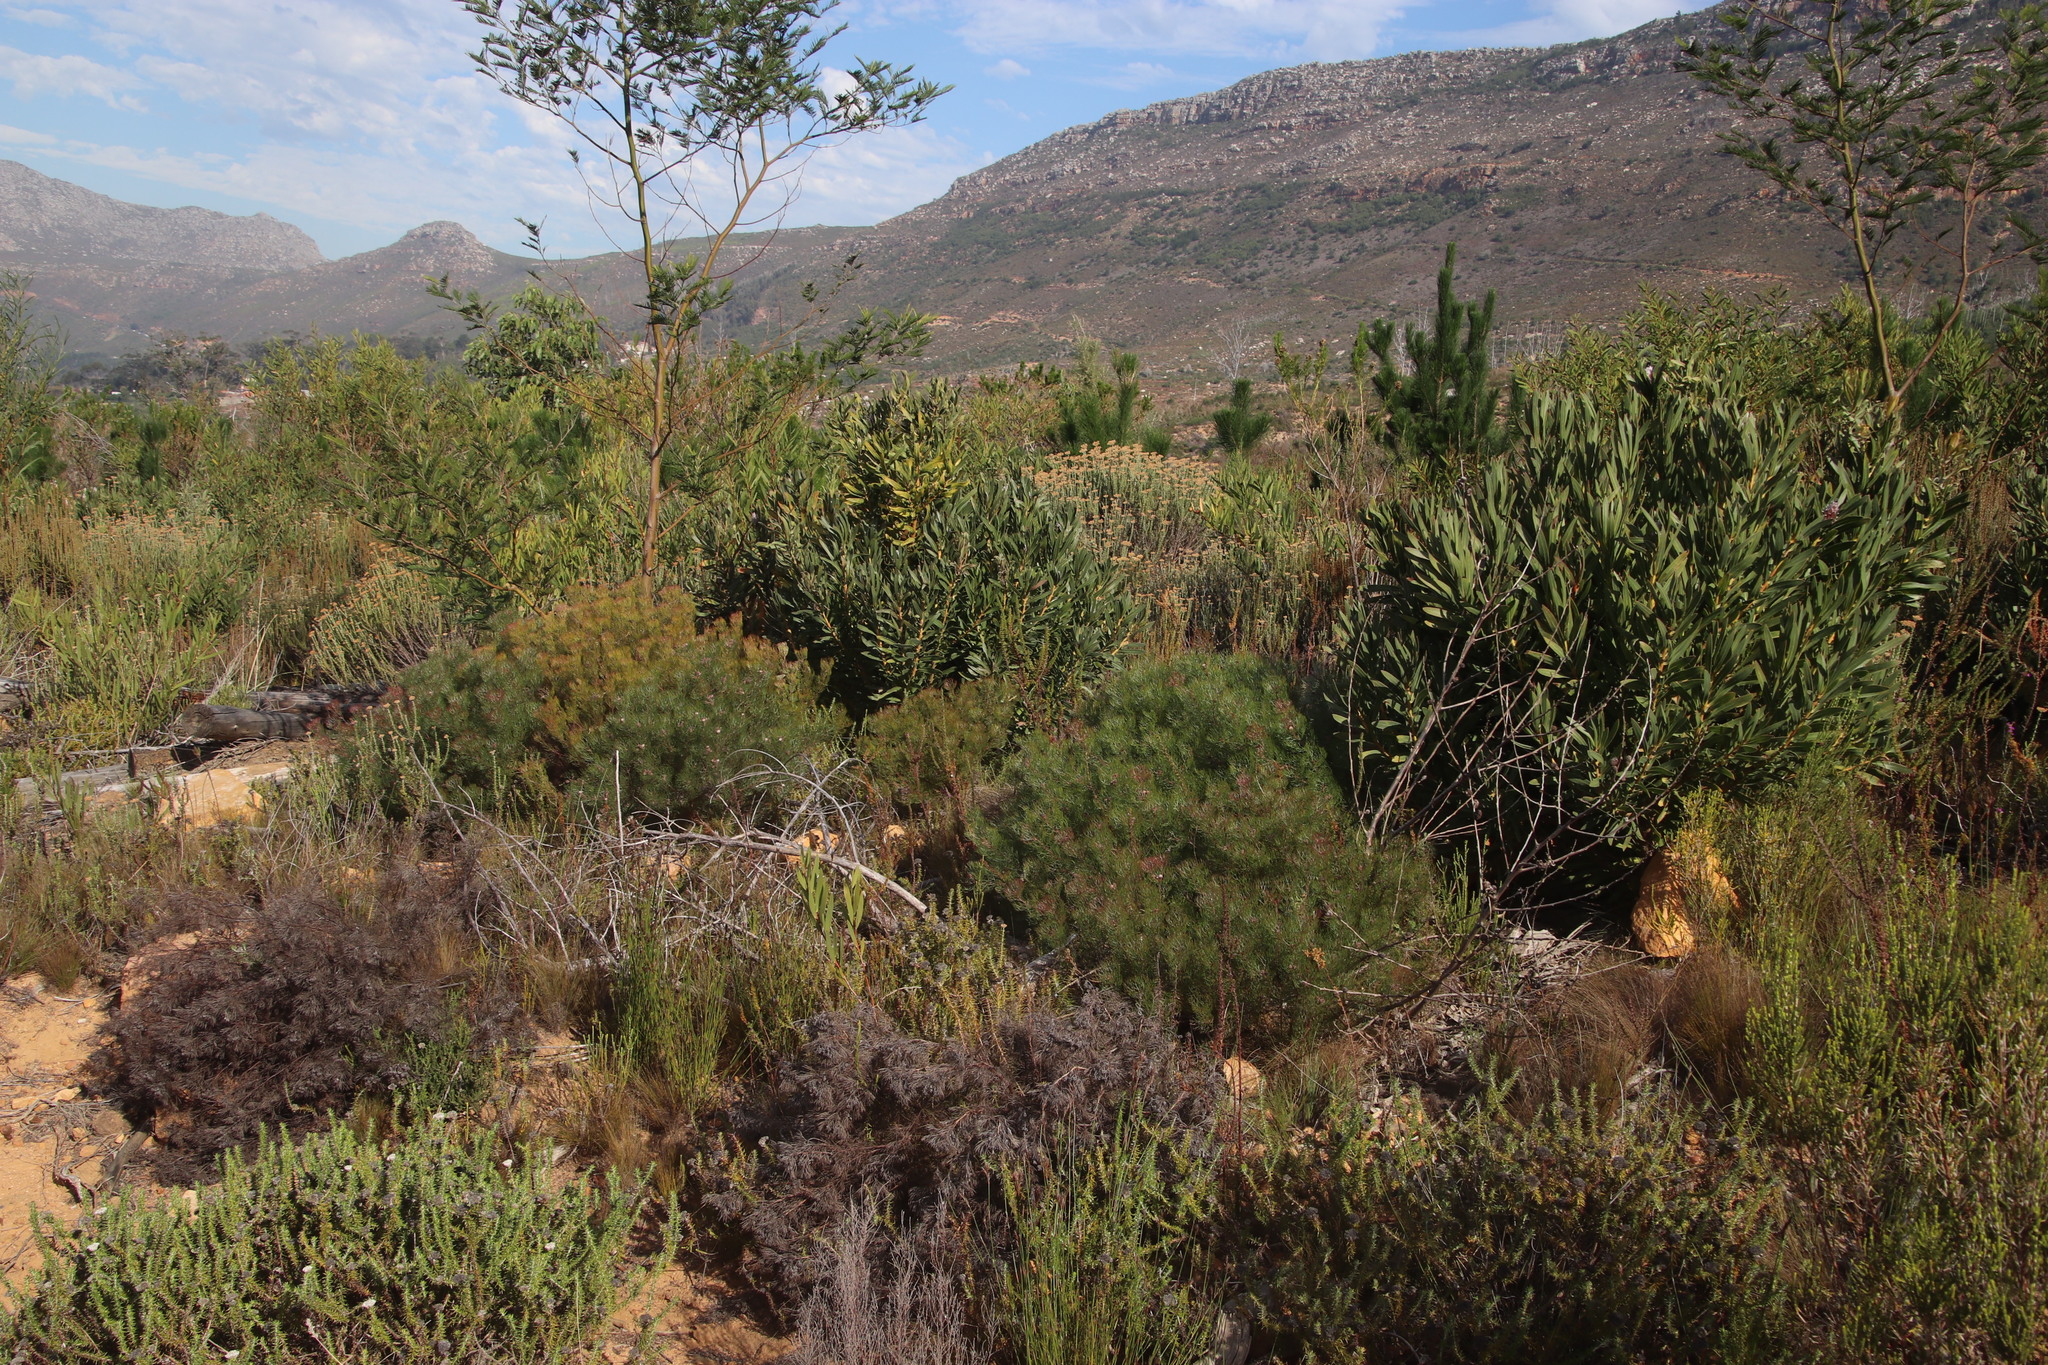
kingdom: Plantae
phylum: Tracheophyta
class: Magnoliopsida
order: Proteales
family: Proteaceae
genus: Serruria
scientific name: Serruria fasciflora
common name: Common pin spiderhead
